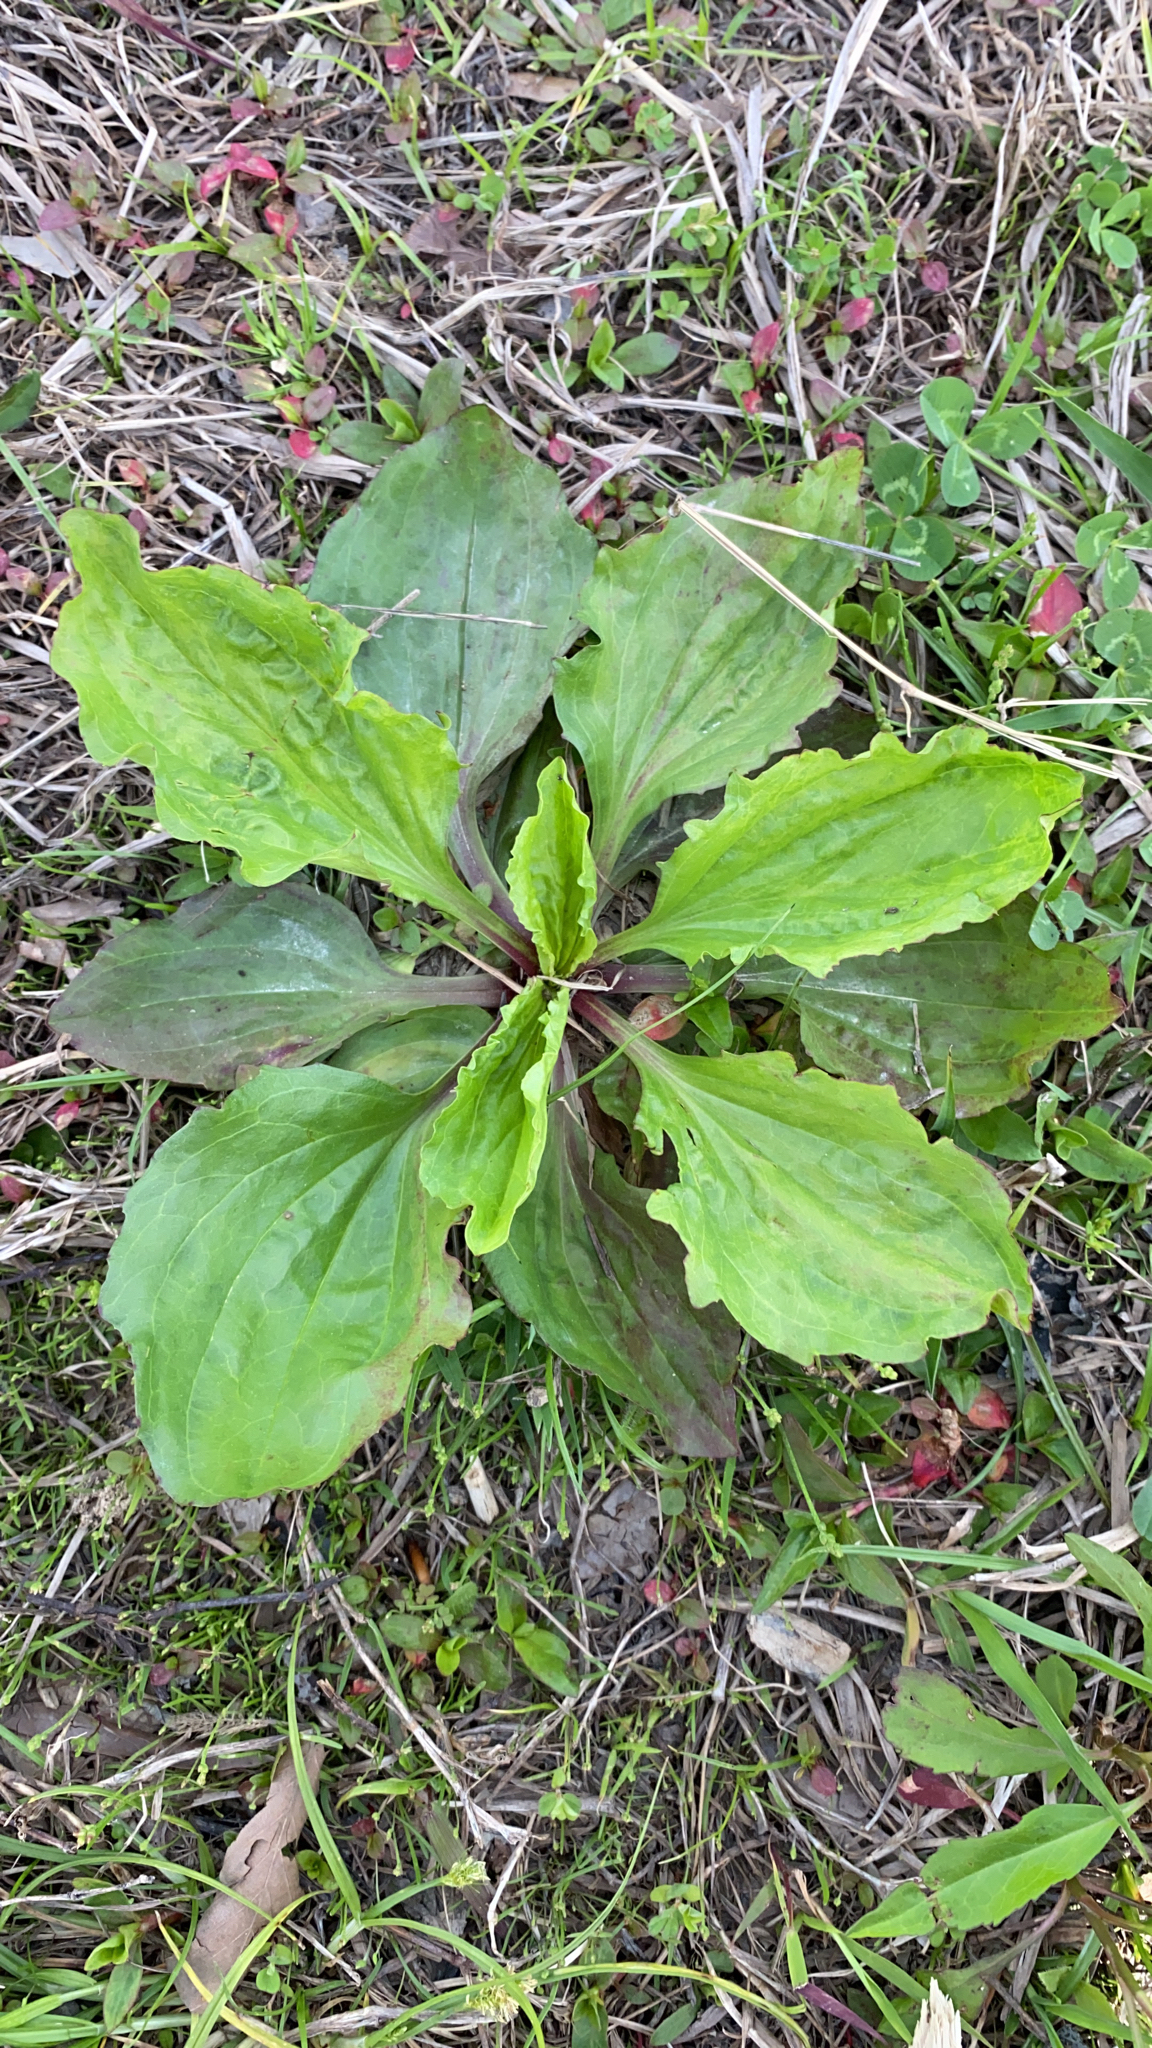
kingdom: Plantae
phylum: Tracheophyta
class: Magnoliopsida
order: Lamiales
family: Plantaginaceae
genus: Plantago
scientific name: Plantago rugelii
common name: American plantain
